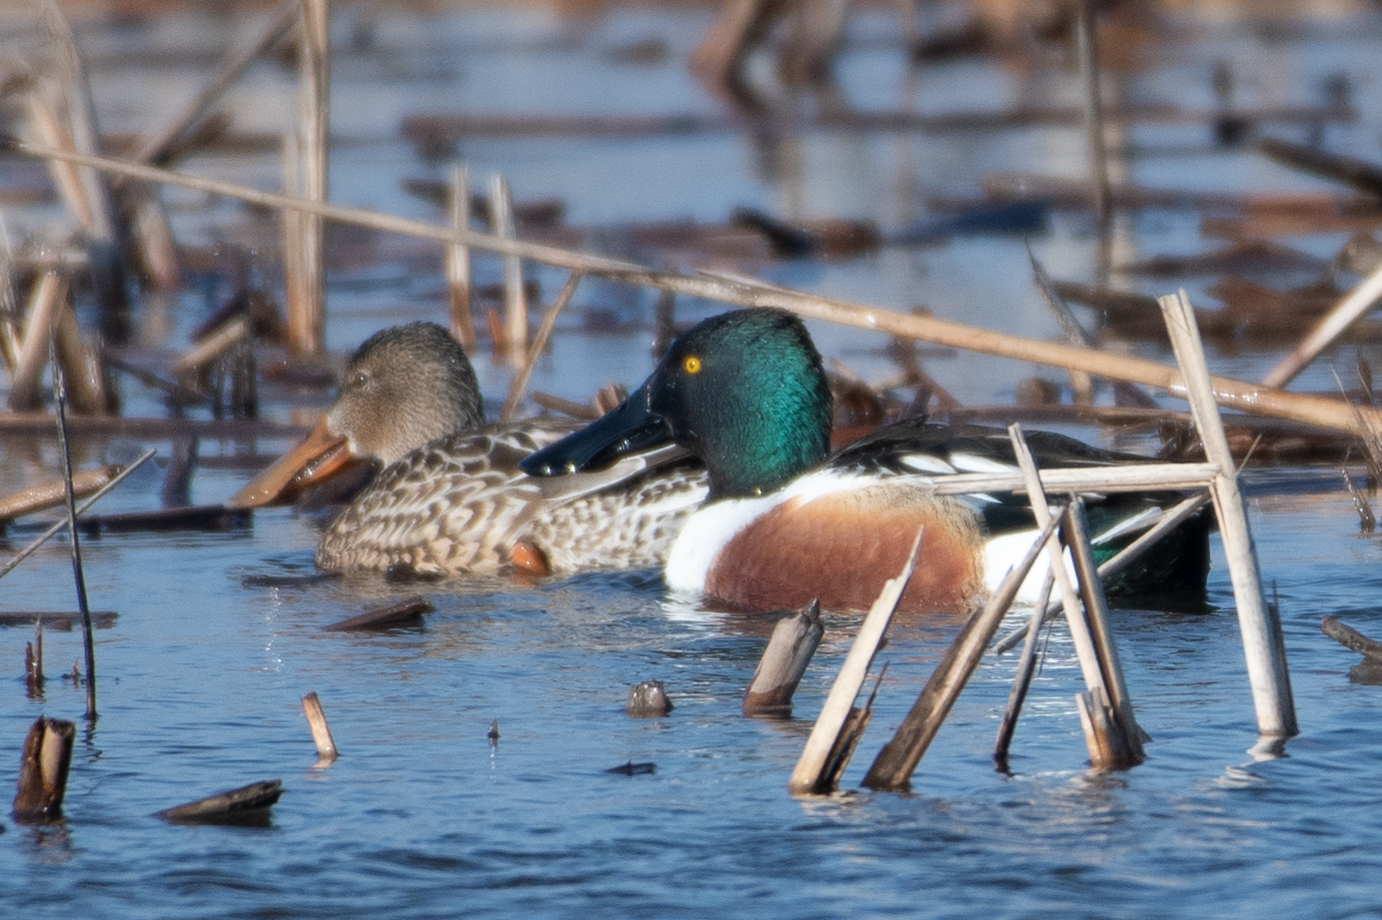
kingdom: Animalia
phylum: Chordata
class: Aves
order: Anseriformes
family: Anatidae
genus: Spatula
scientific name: Spatula clypeata
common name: Northern shoveler
